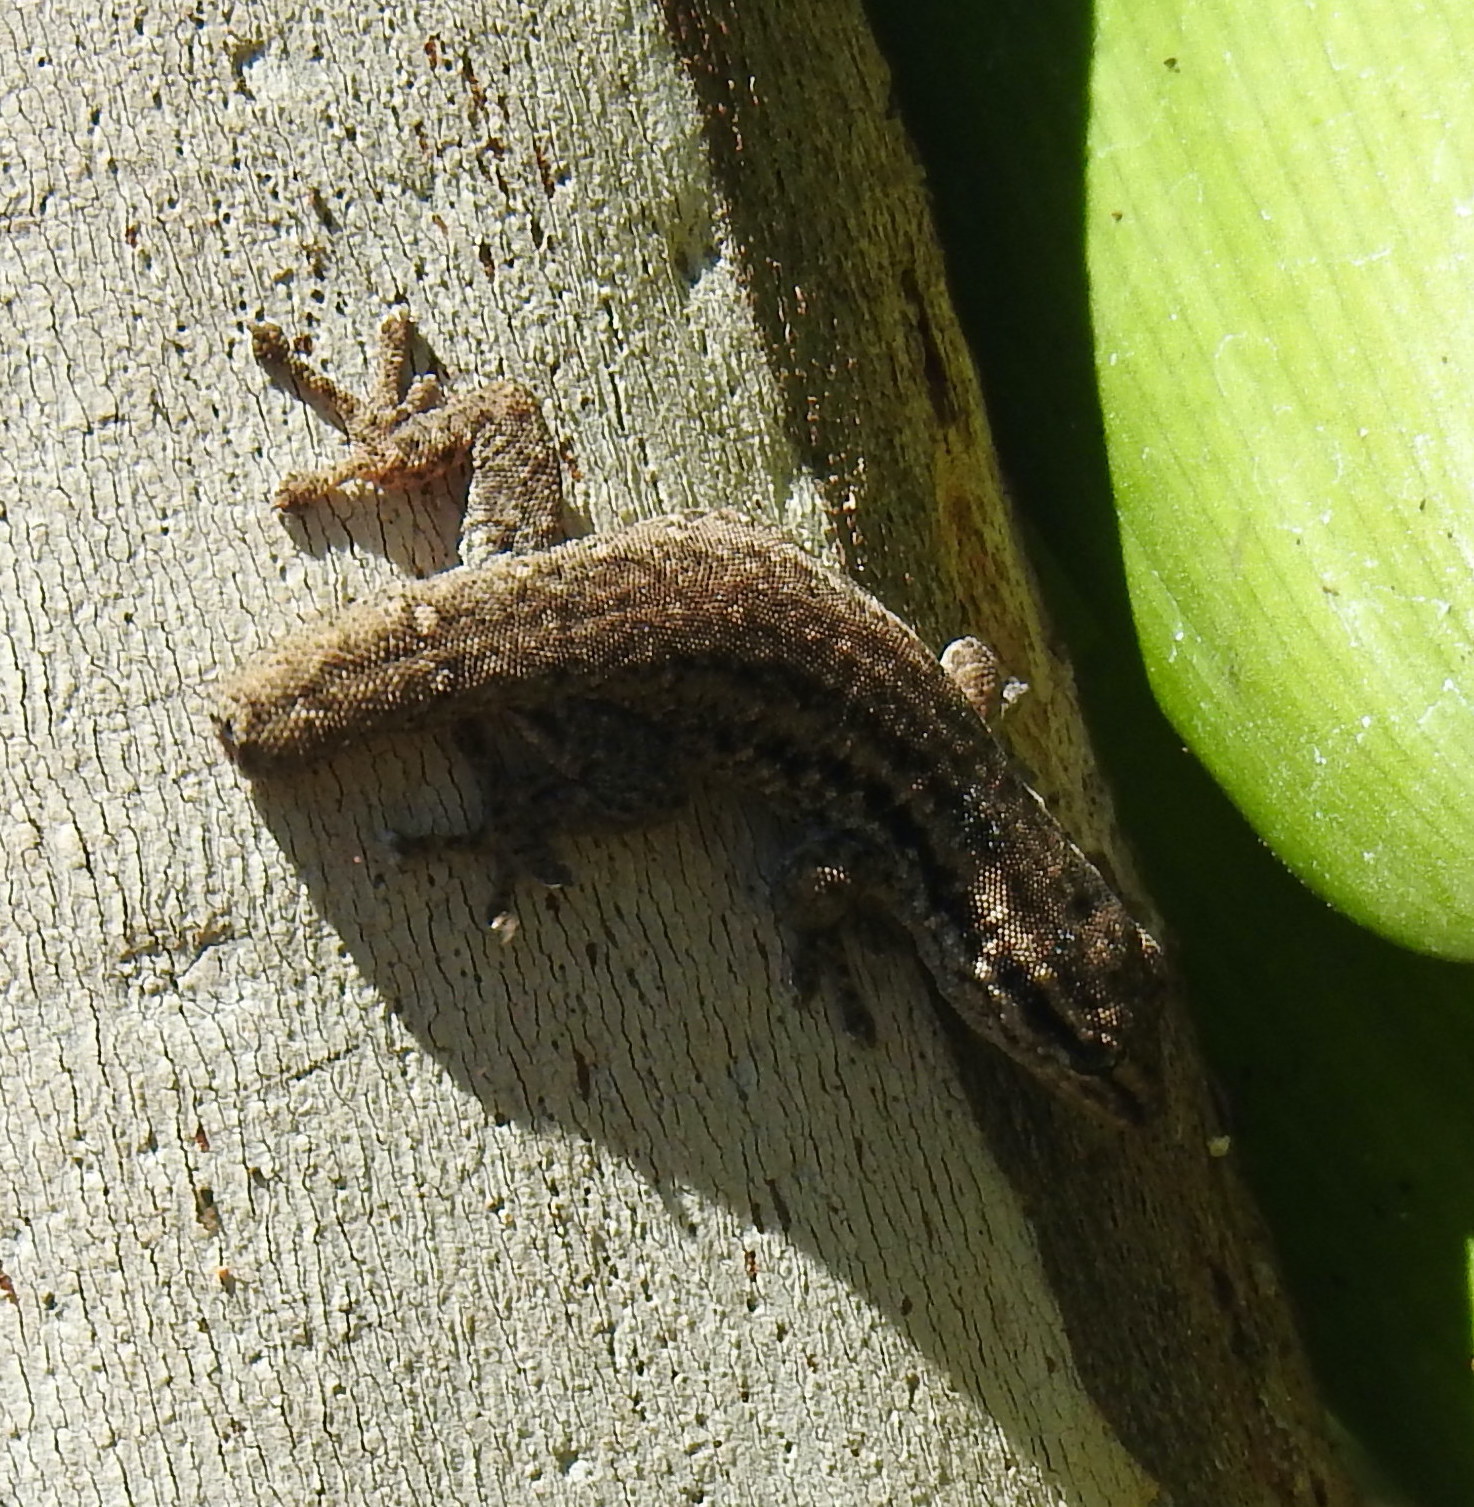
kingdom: Animalia
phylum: Chordata
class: Squamata
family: Gekkonidae
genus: Lygodactylus
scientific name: Lygodactylus capensis
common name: Cape dwarf gecko
